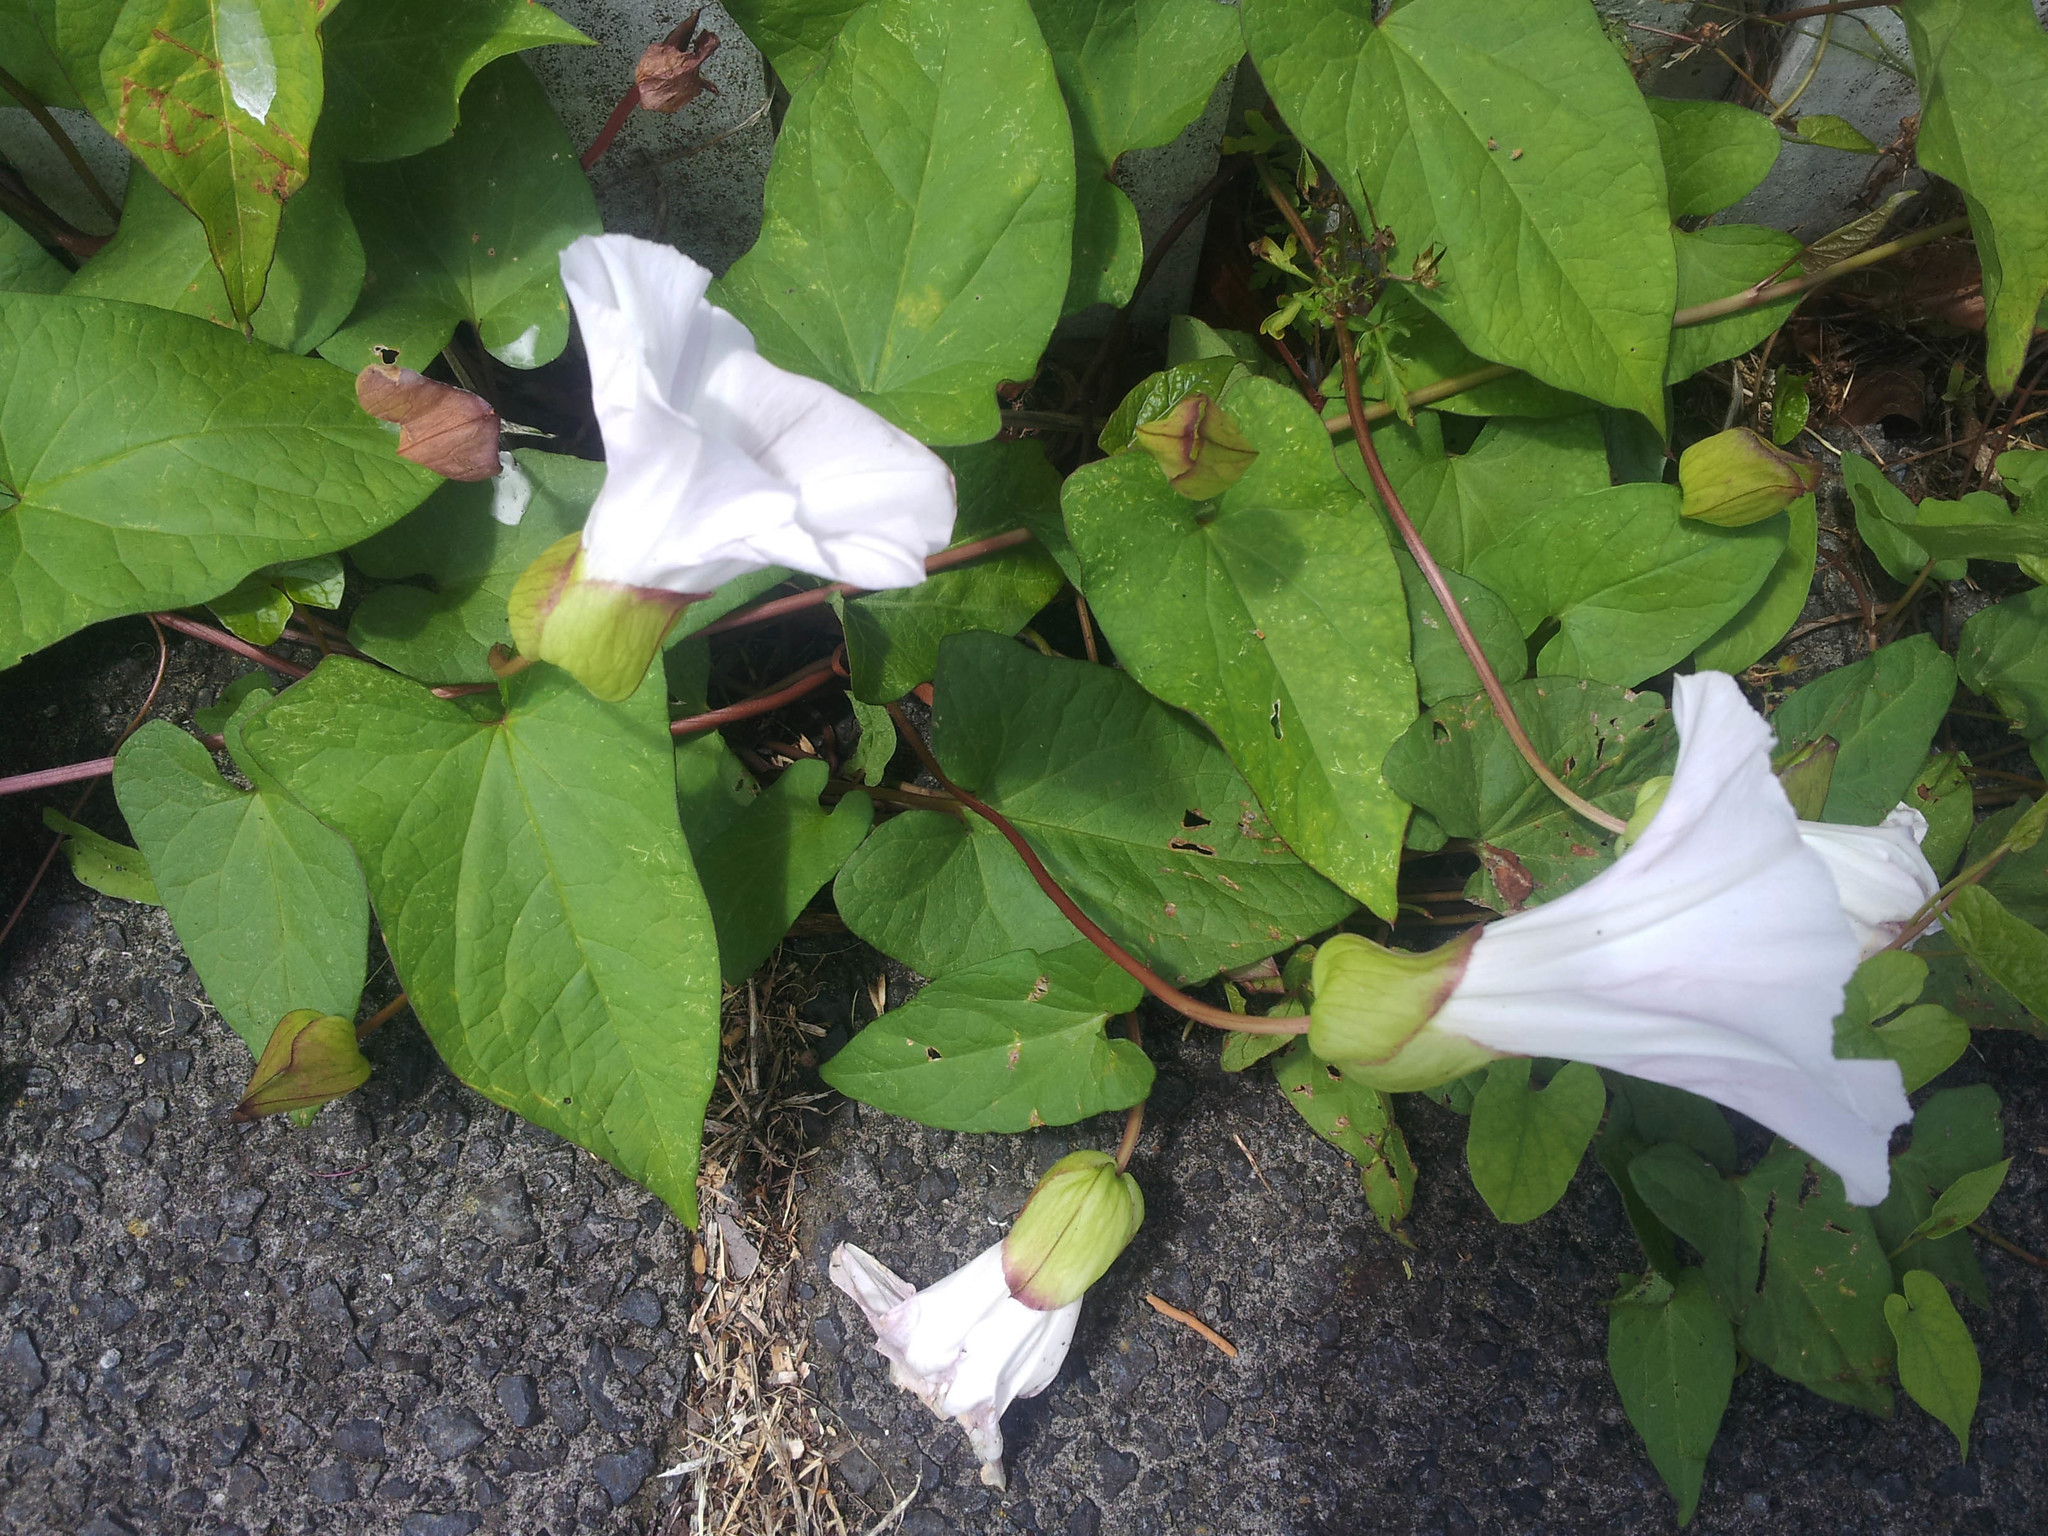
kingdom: Plantae
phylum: Tracheophyta
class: Magnoliopsida
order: Solanales
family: Convolvulaceae
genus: Calystegia
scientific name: Calystegia silvatica
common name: Large bindweed
